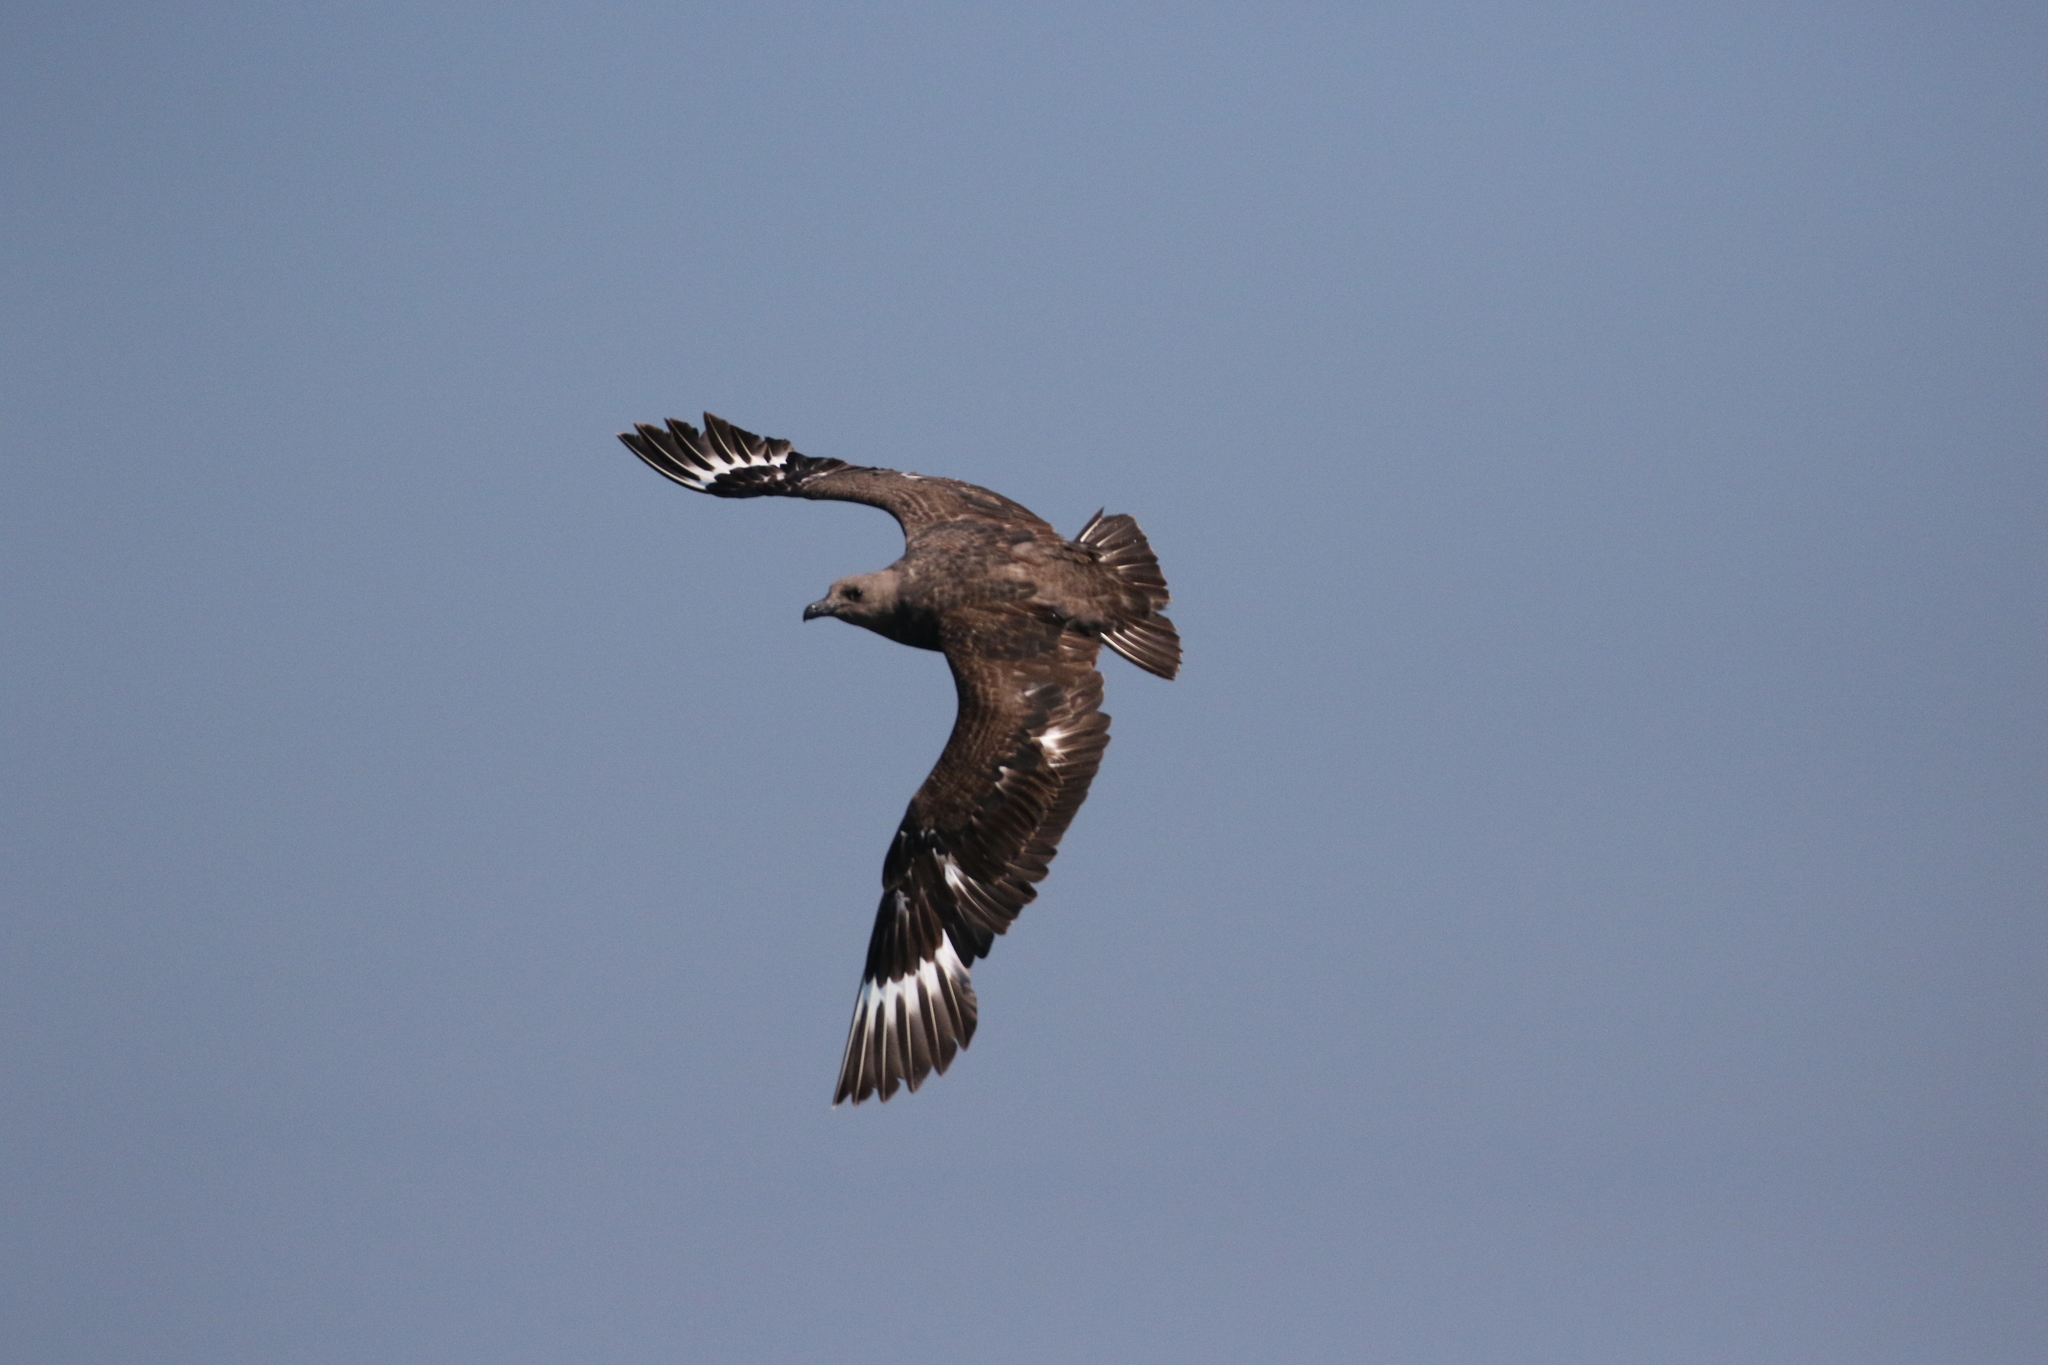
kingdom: Animalia
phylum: Chordata
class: Aves
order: Charadriiformes
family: Stercorariidae
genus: Stercorarius
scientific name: Stercorarius maccormicki
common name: South polar skua
